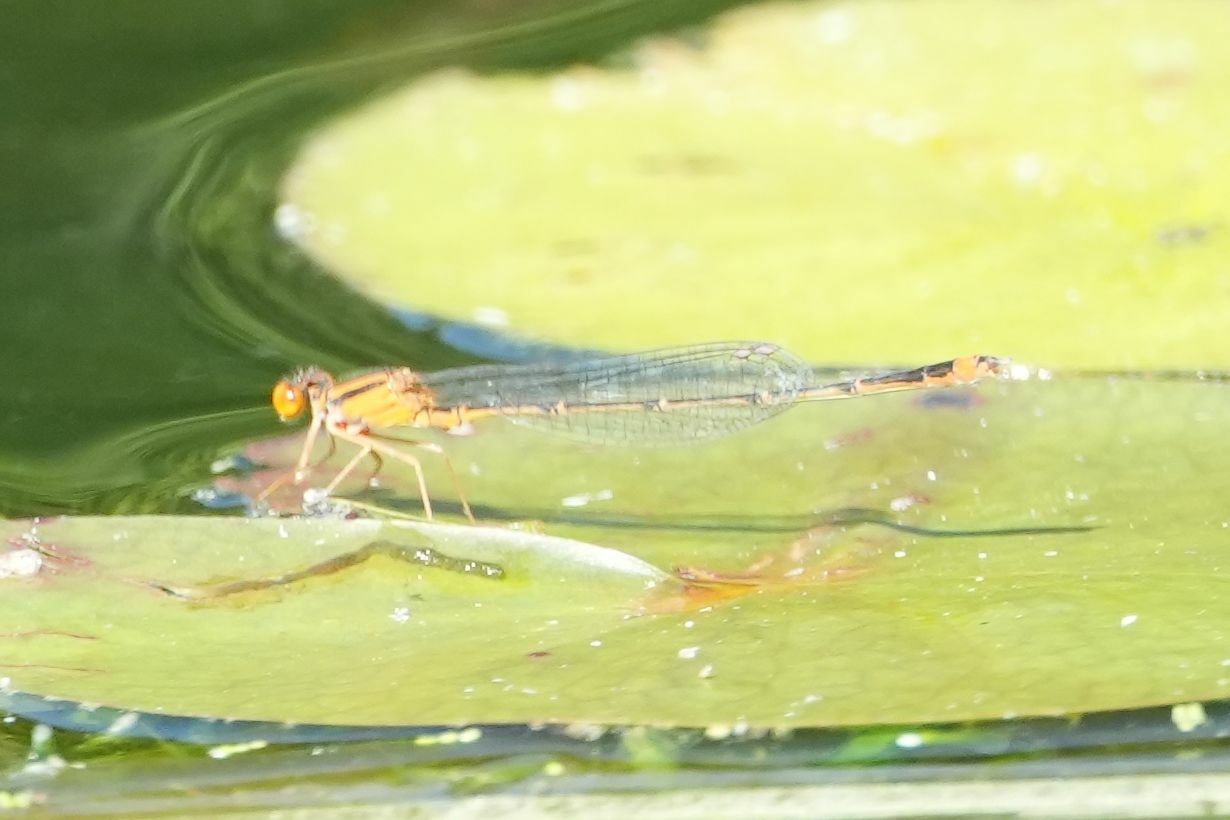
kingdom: Animalia
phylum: Arthropoda
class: Insecta
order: Odonata
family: Coenagrionidae
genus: Enallagma
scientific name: Enallagma signatum
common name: Orange bluet
